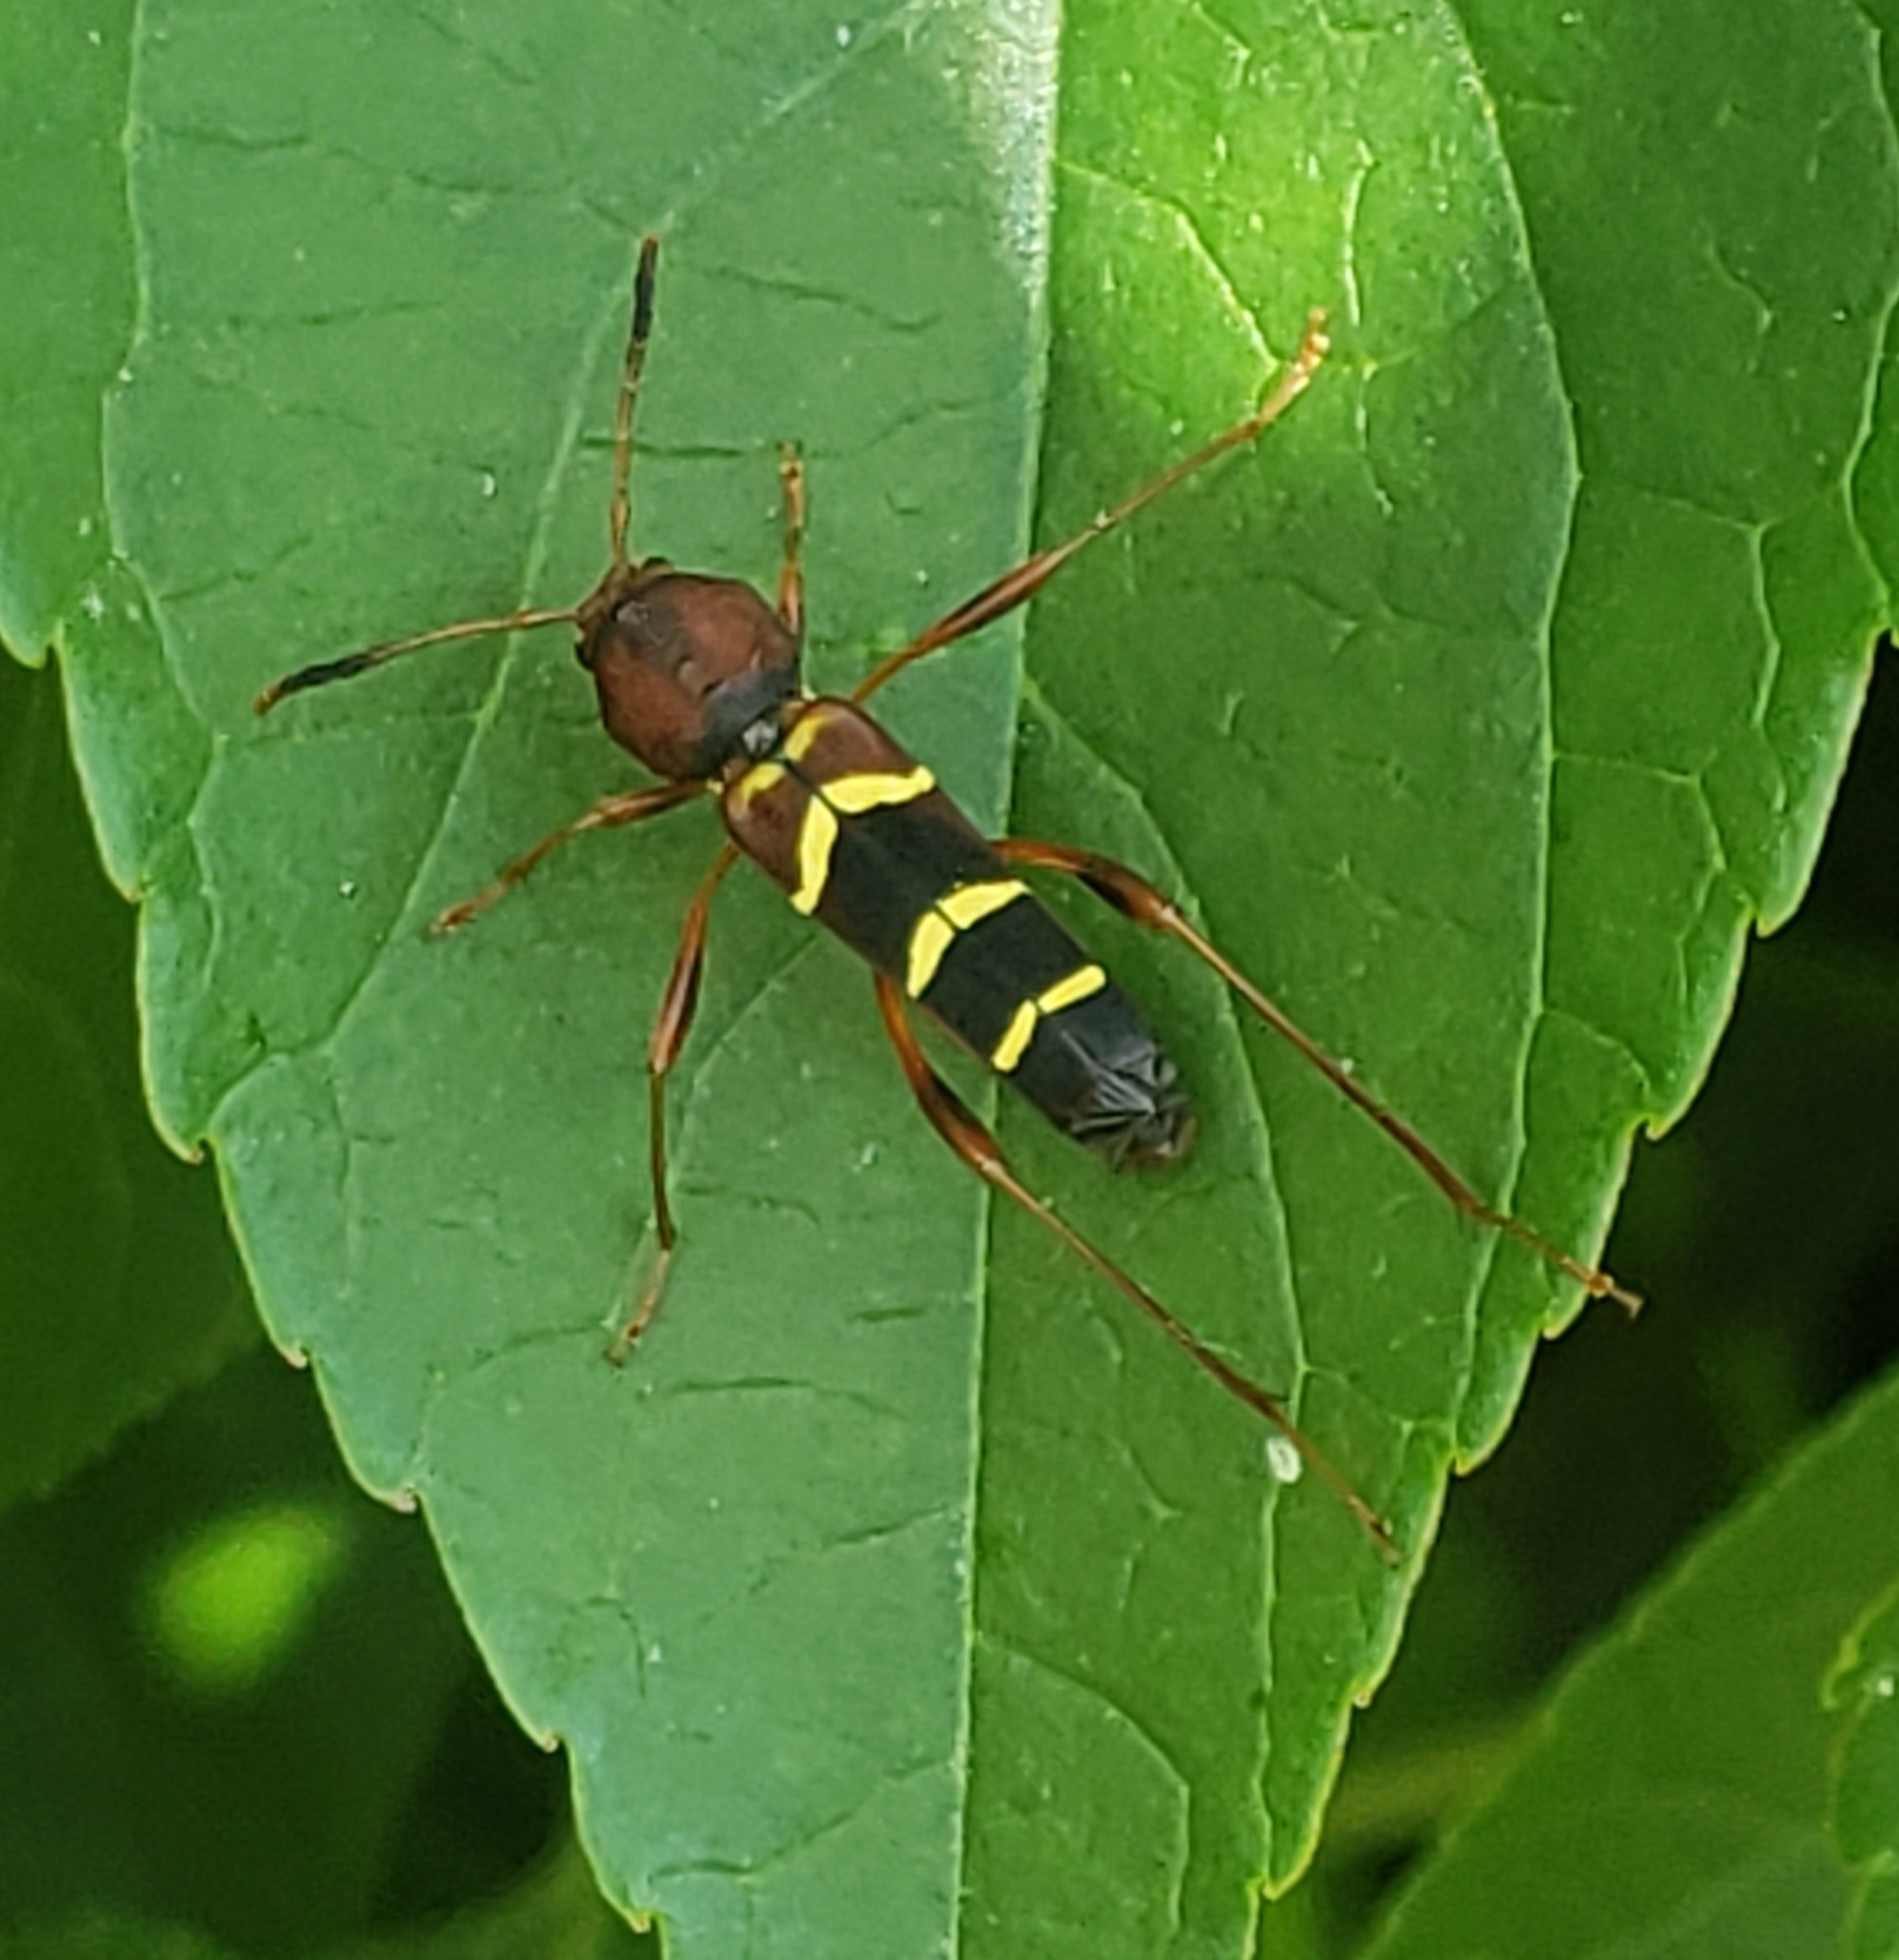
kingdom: Animalia
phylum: Arthropoda
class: Insecta
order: Coleoptera
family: Cerambycidae
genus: Neoclytus
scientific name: Neoclytus acuminatus
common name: Read-headed ash borer
